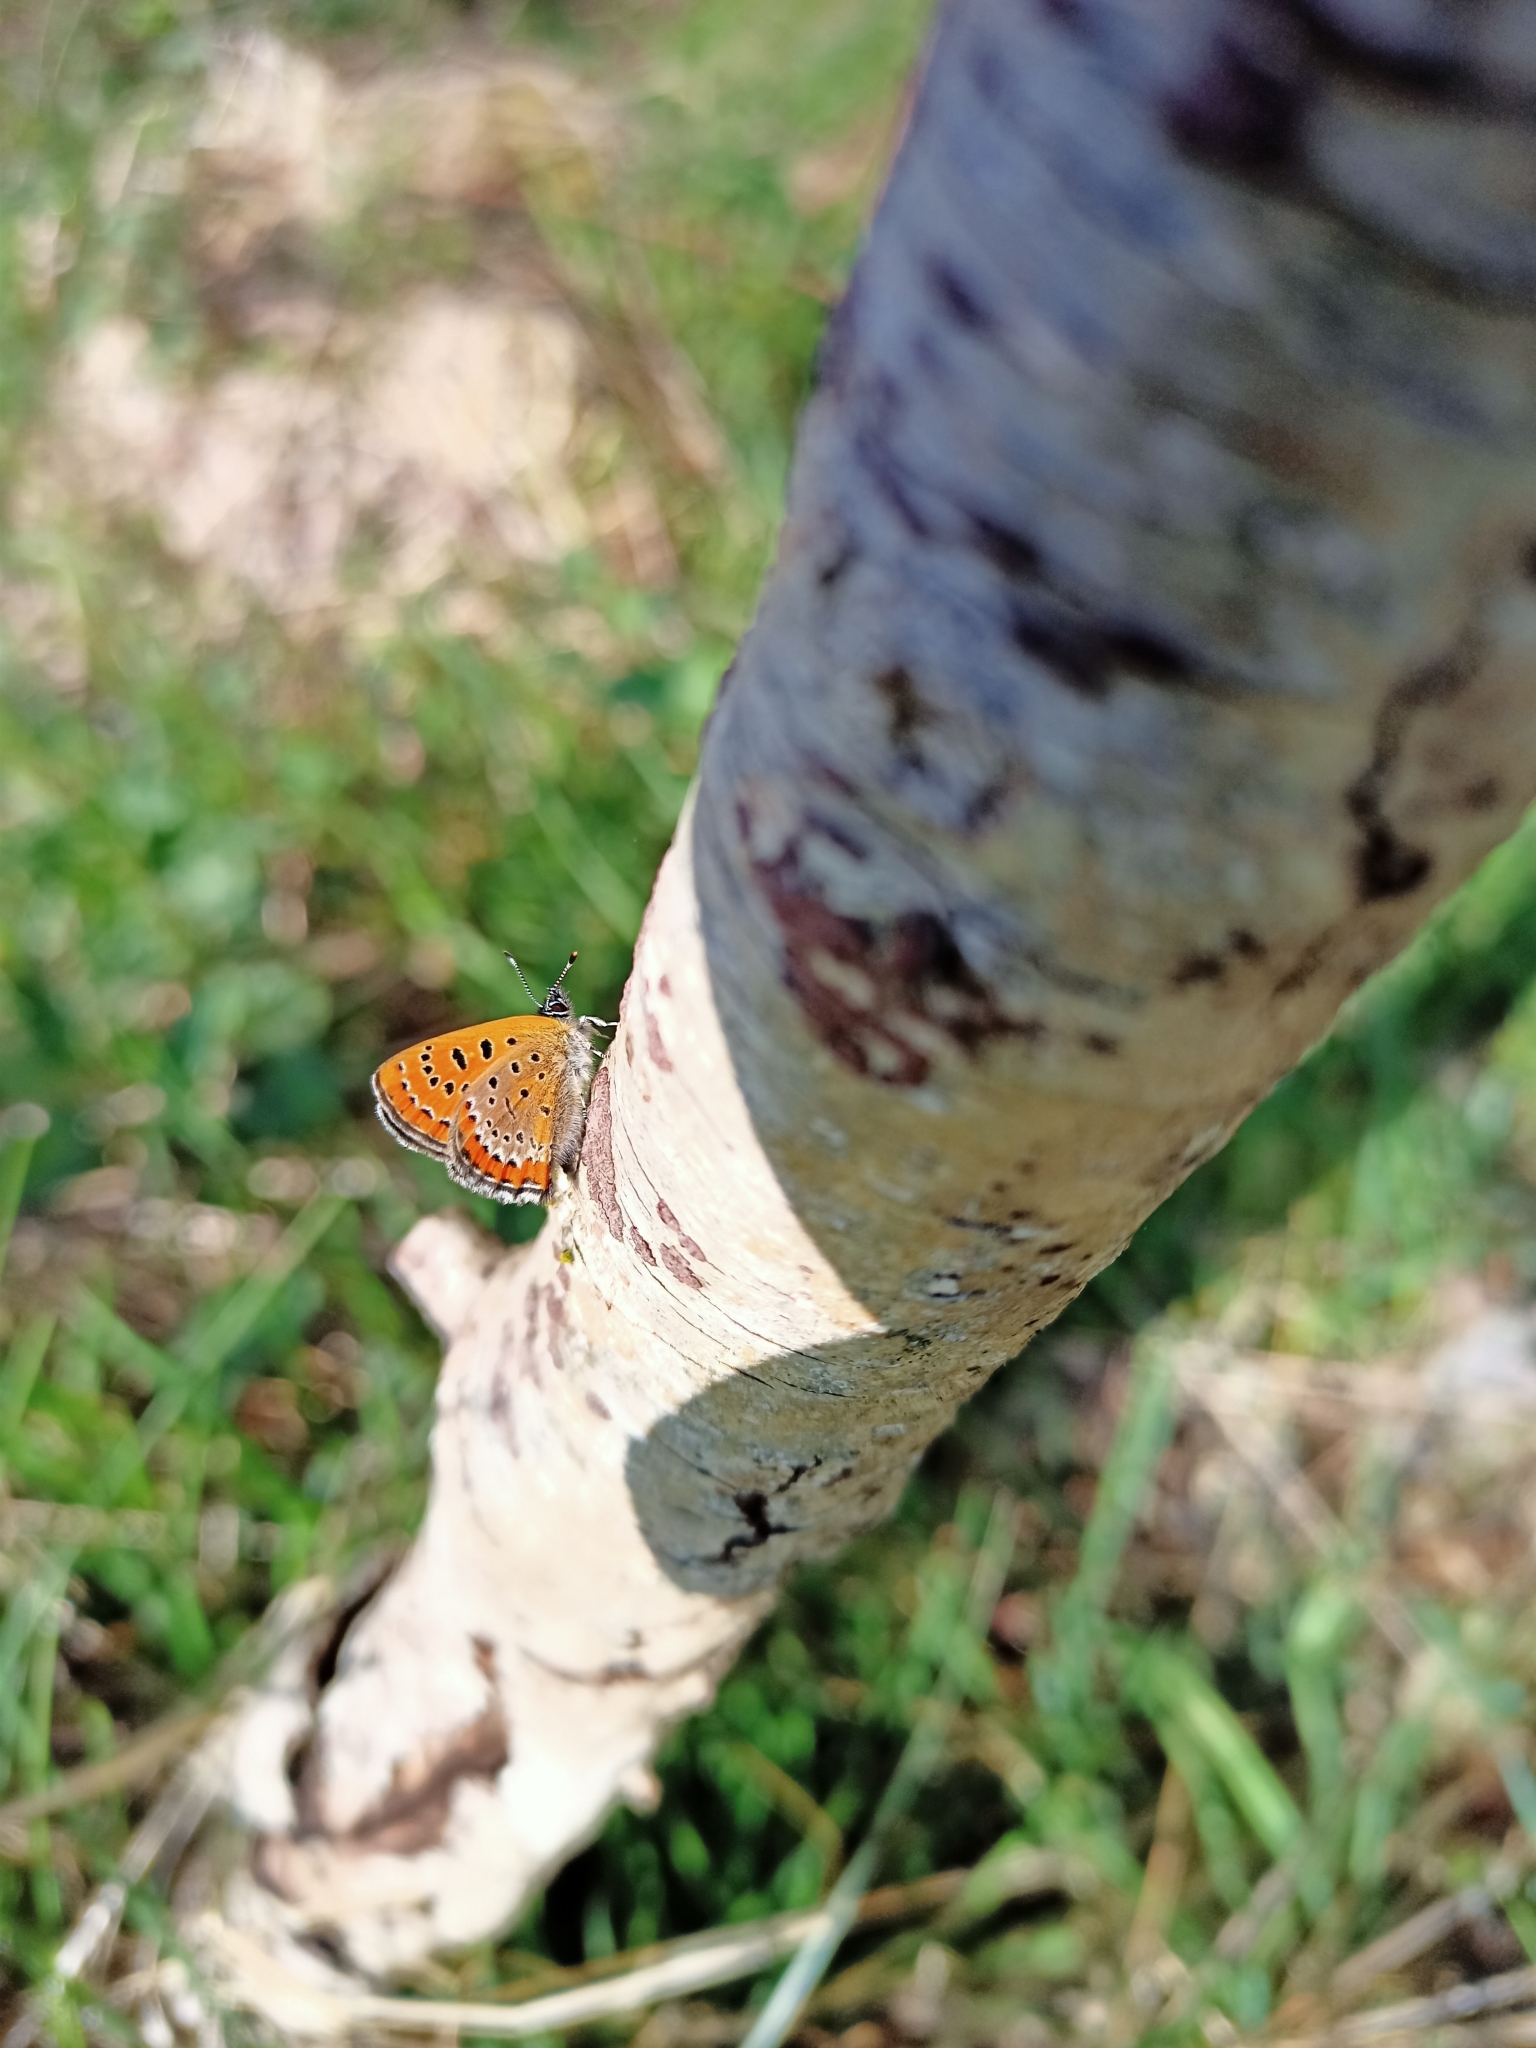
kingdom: Animalia
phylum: Arthropoda
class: Insecta
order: Lepidoptera
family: Lycaenidae
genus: Helleia
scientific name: Helleia helle
